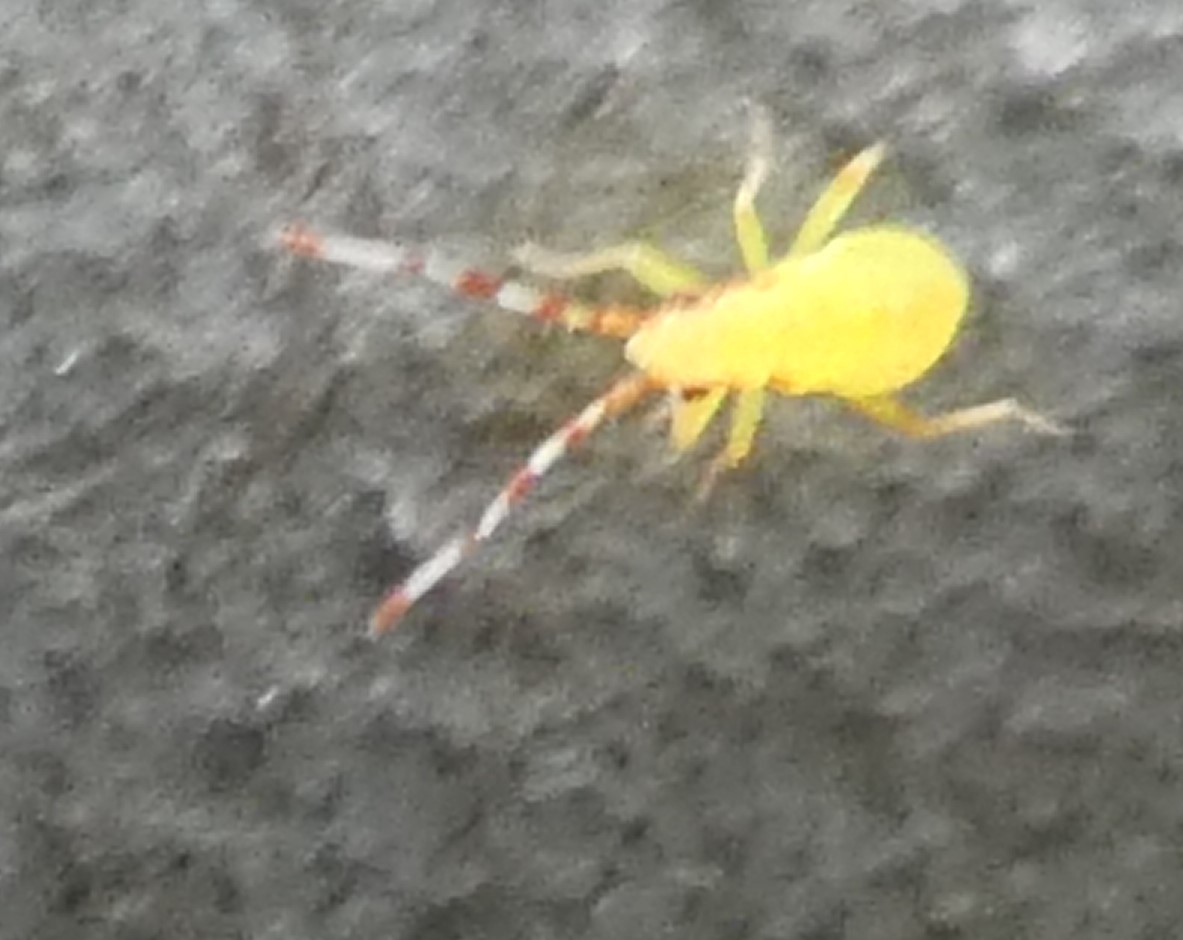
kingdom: Animalia
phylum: Arthropoda
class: Insecta
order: Hemiptera
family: Miridae
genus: Campyloneura
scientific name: Campyloneura virgula
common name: Predatory bug
